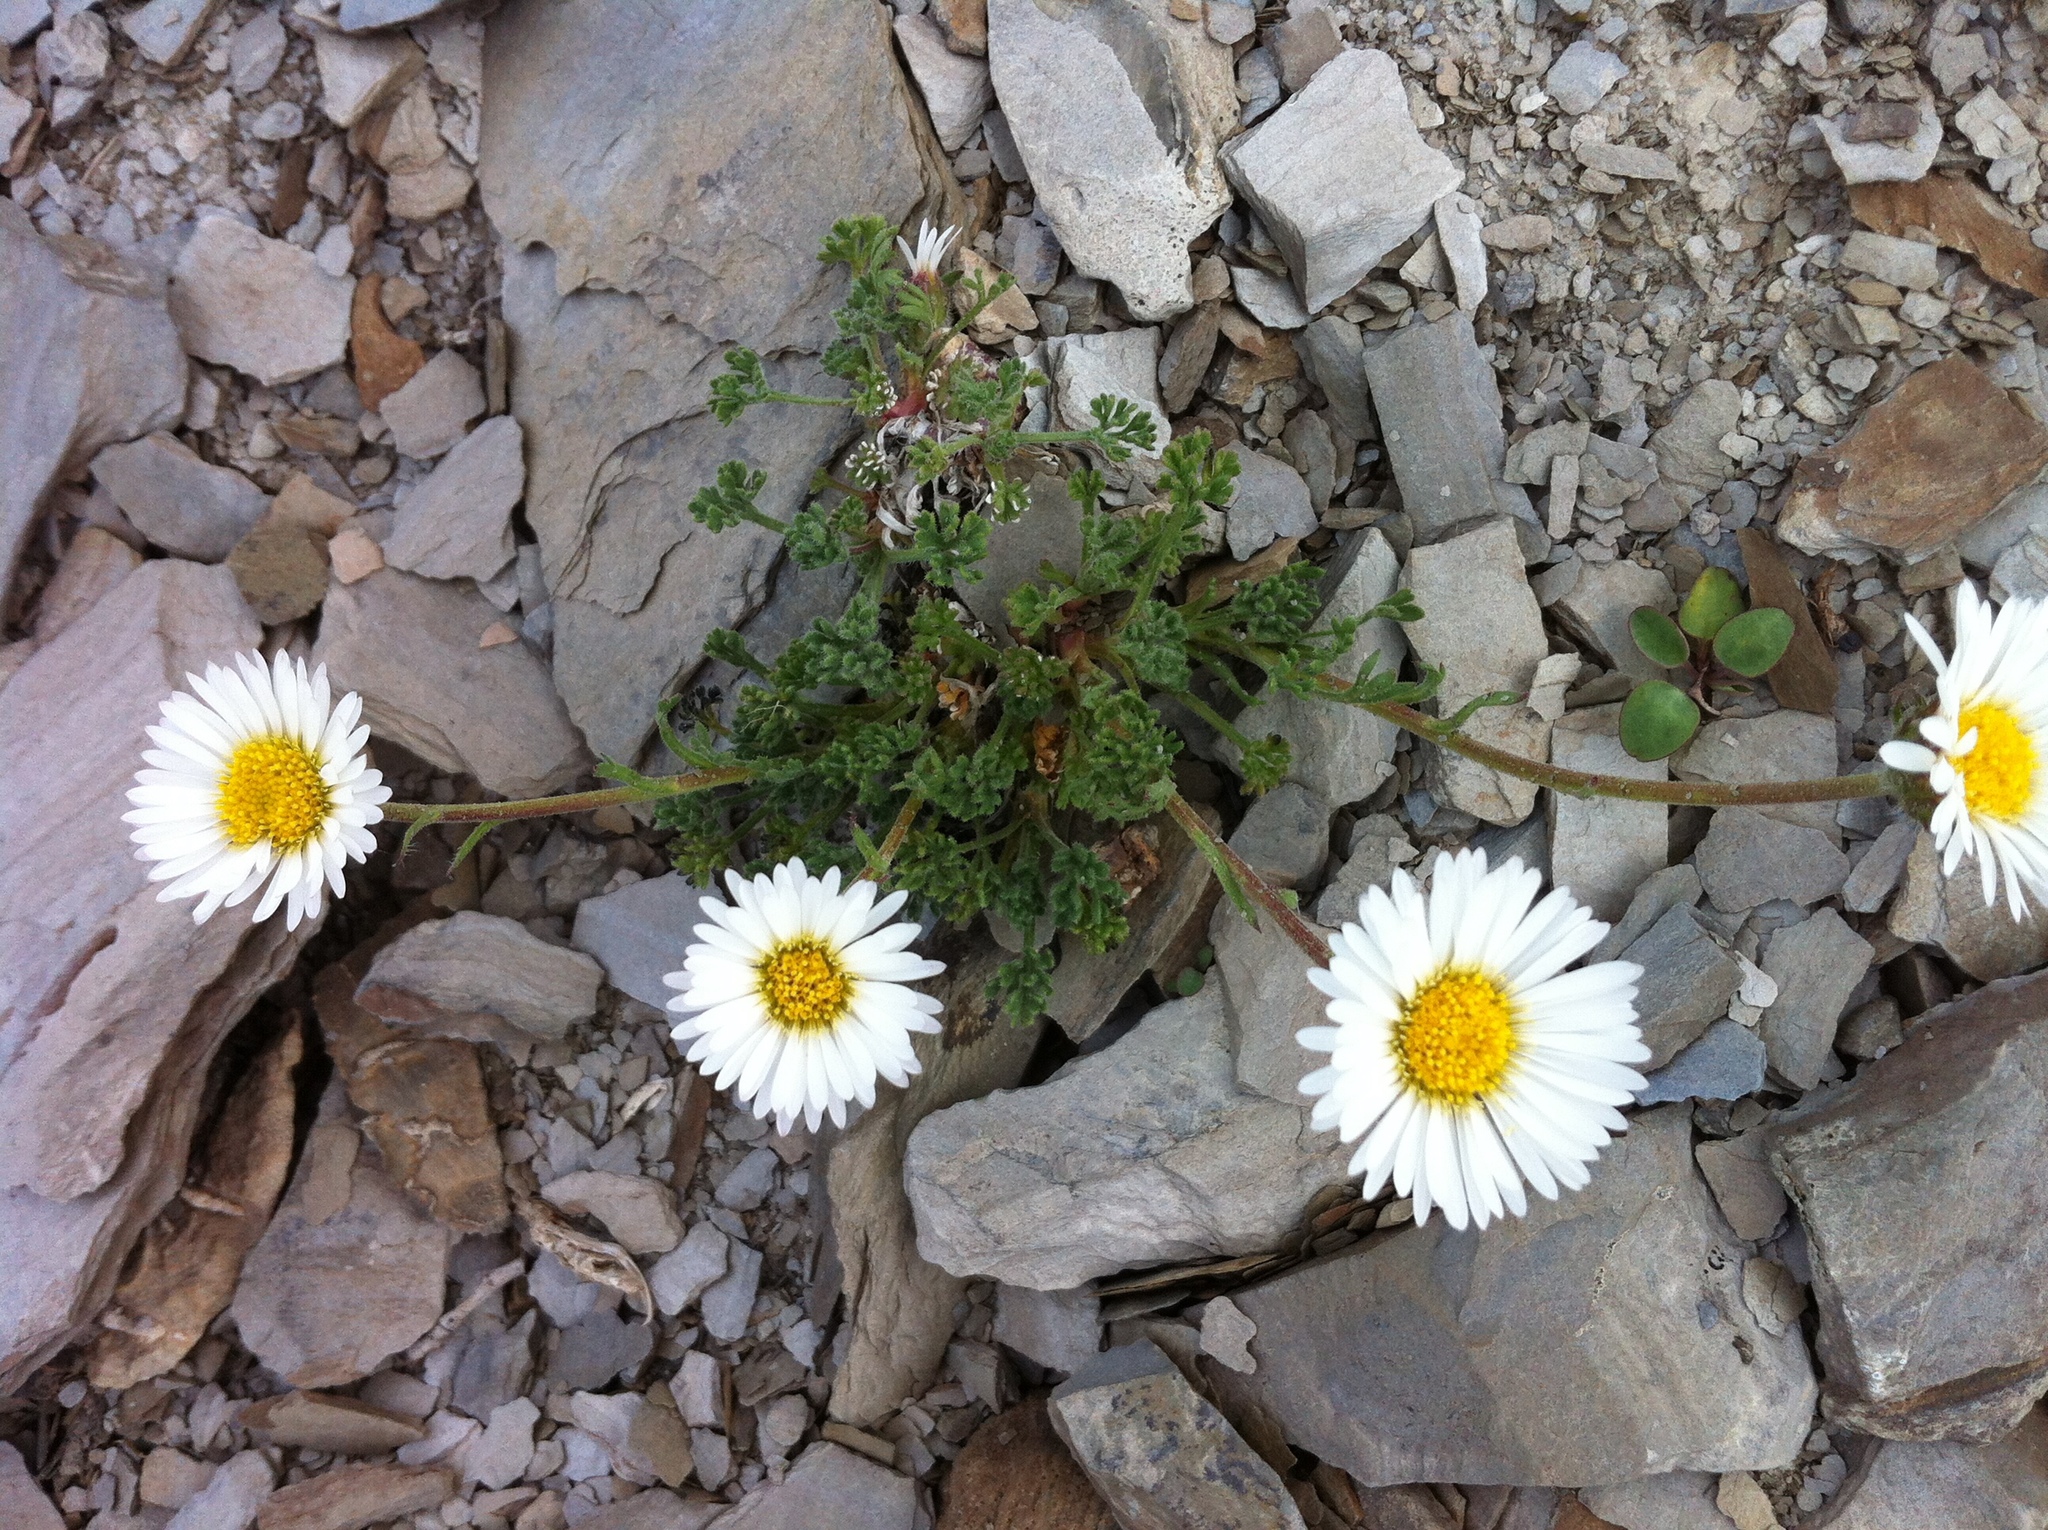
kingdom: Plantae
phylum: Tracheophyta
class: Magnoliopsida
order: Asterales
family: Asteraceae
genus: Erigeron
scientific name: Erigeron compositus
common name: Dwarf mountain fleabane
